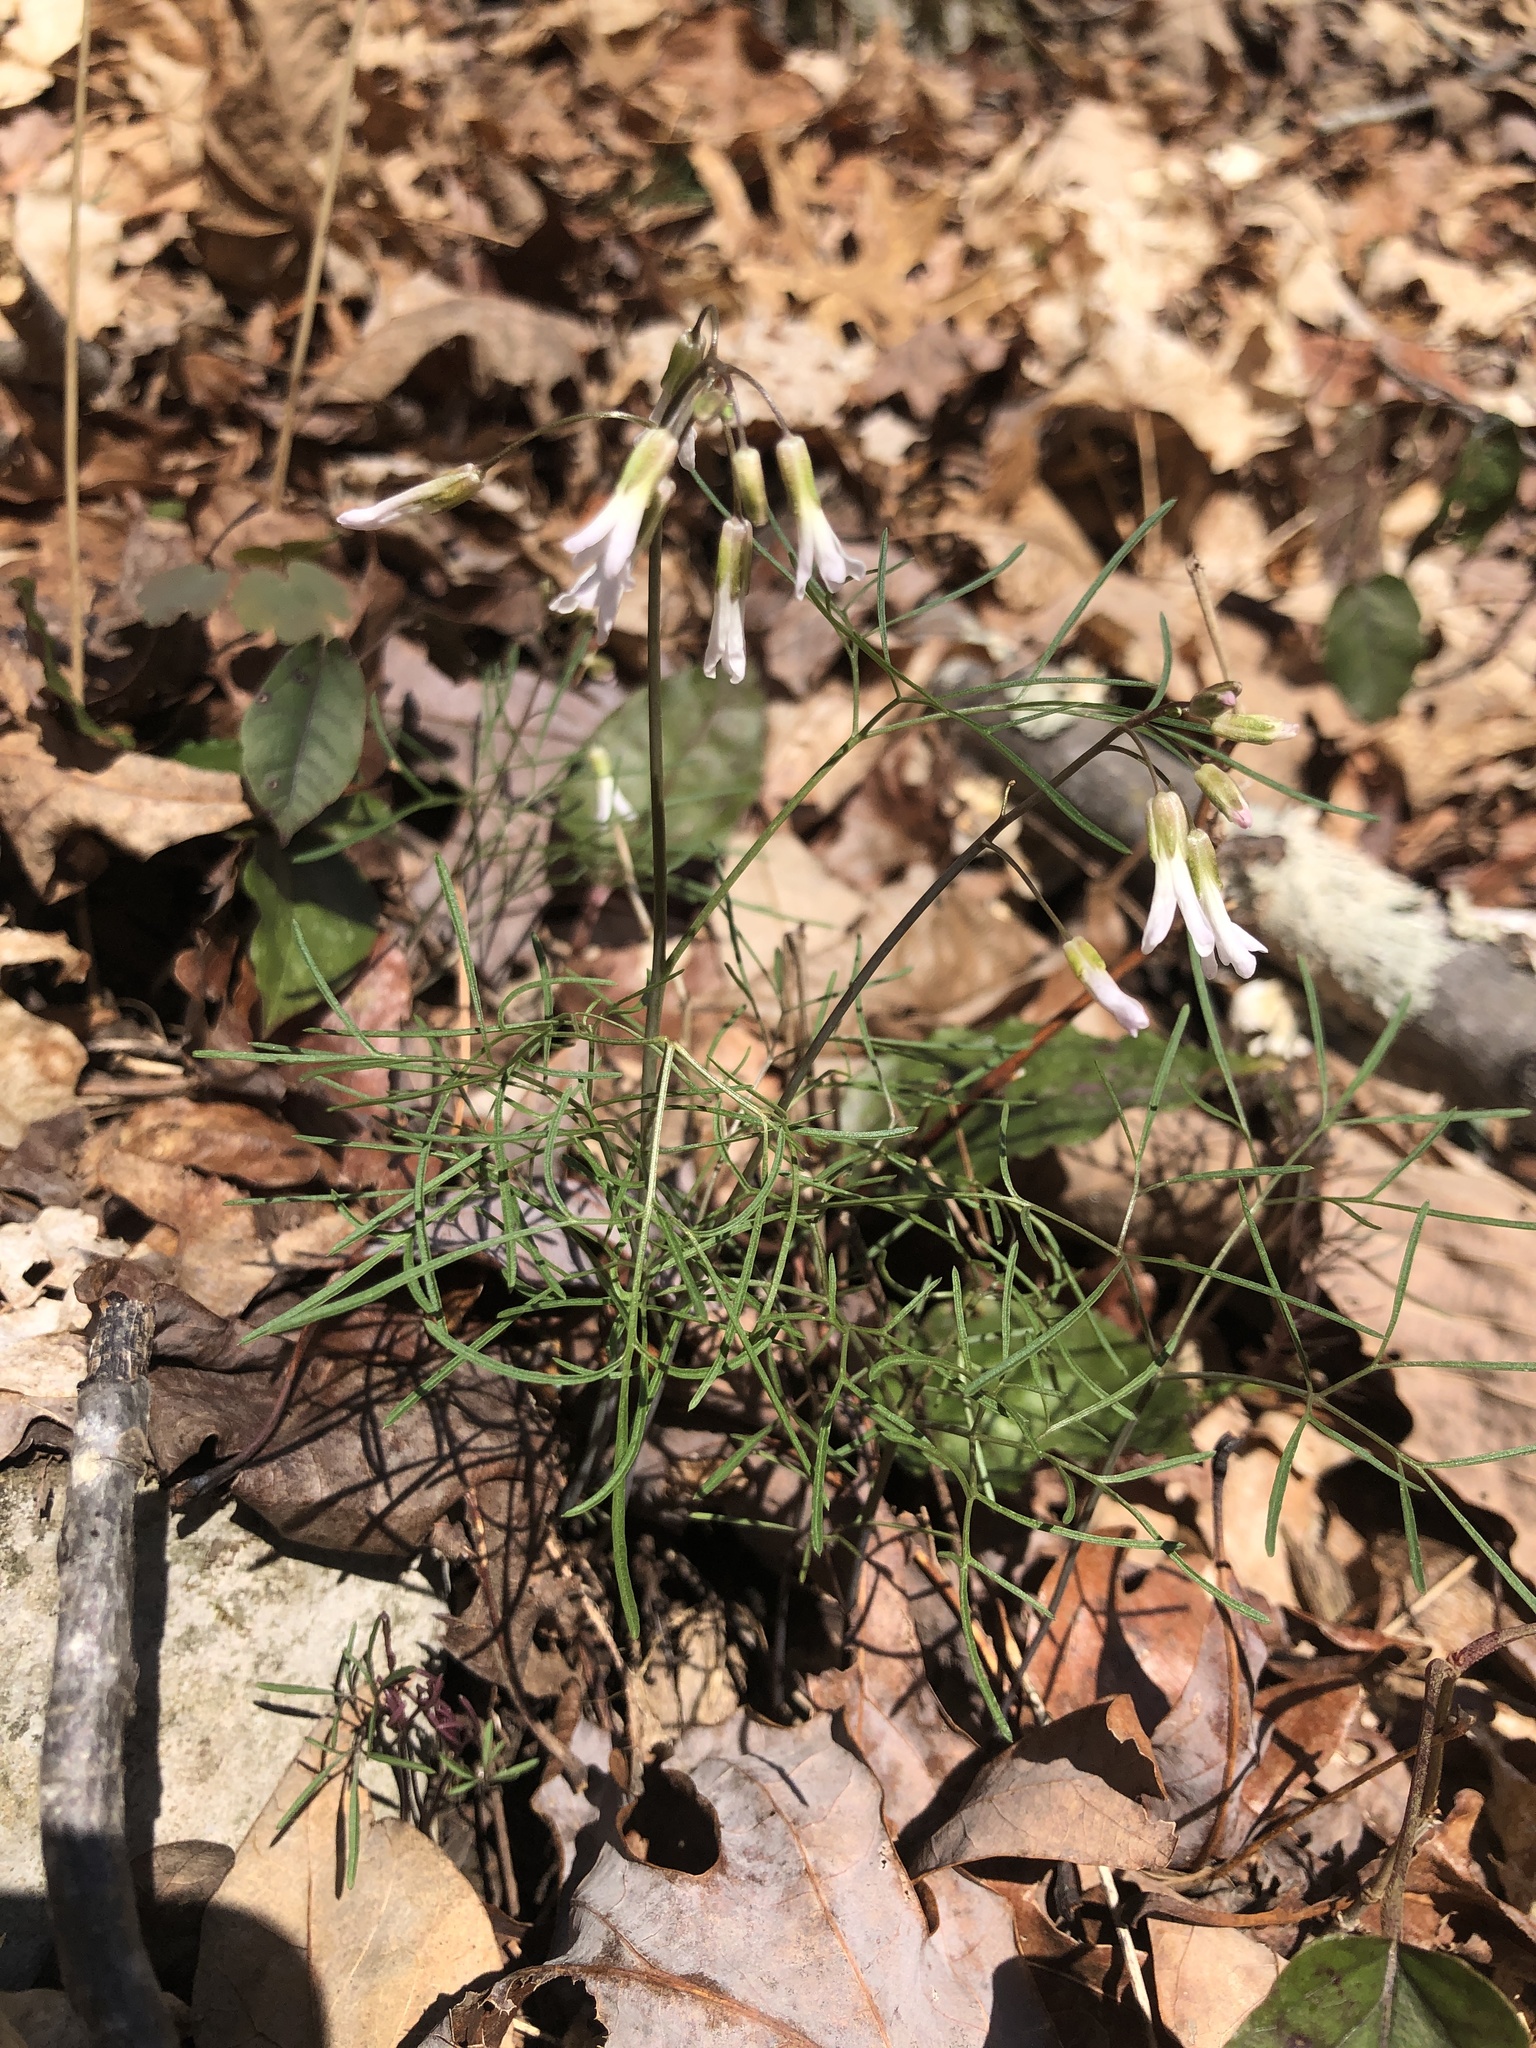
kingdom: Plantae
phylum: Tracheophyta
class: Magnoliopsida
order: Brassicales
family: Brassicaceae
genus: Cardamine
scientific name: Cardamine dissecta
